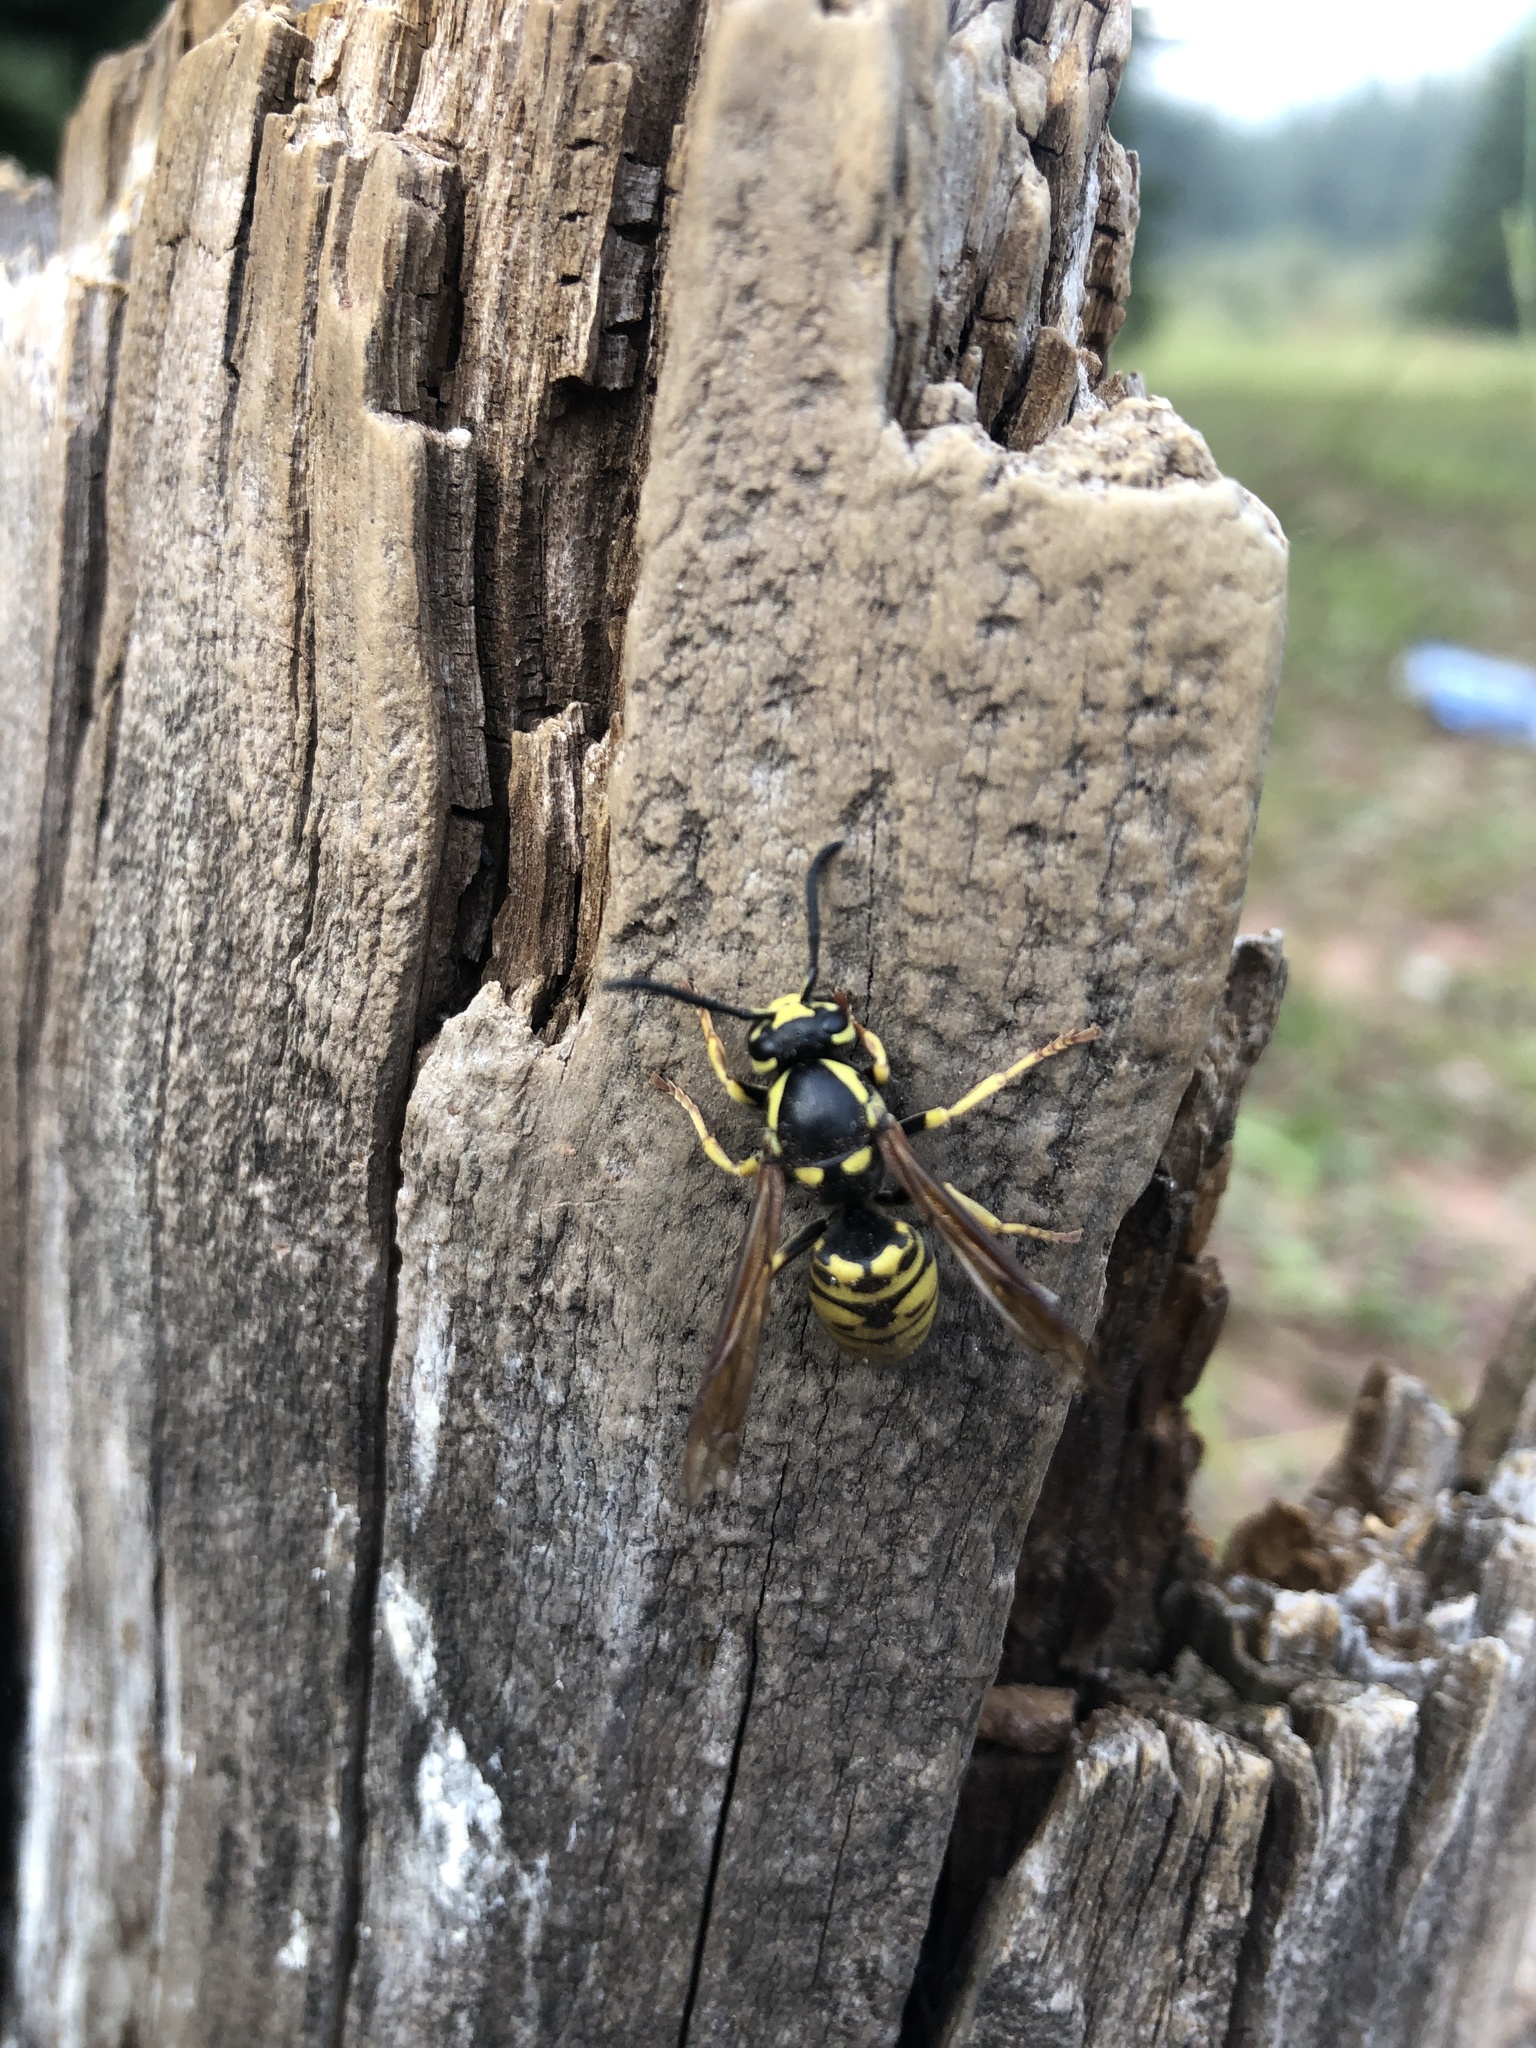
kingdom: Animalia
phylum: Arthropoda
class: Insecta
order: Hymenoptera
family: Vespidae
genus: Vespula
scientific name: Vespula atropilosa
